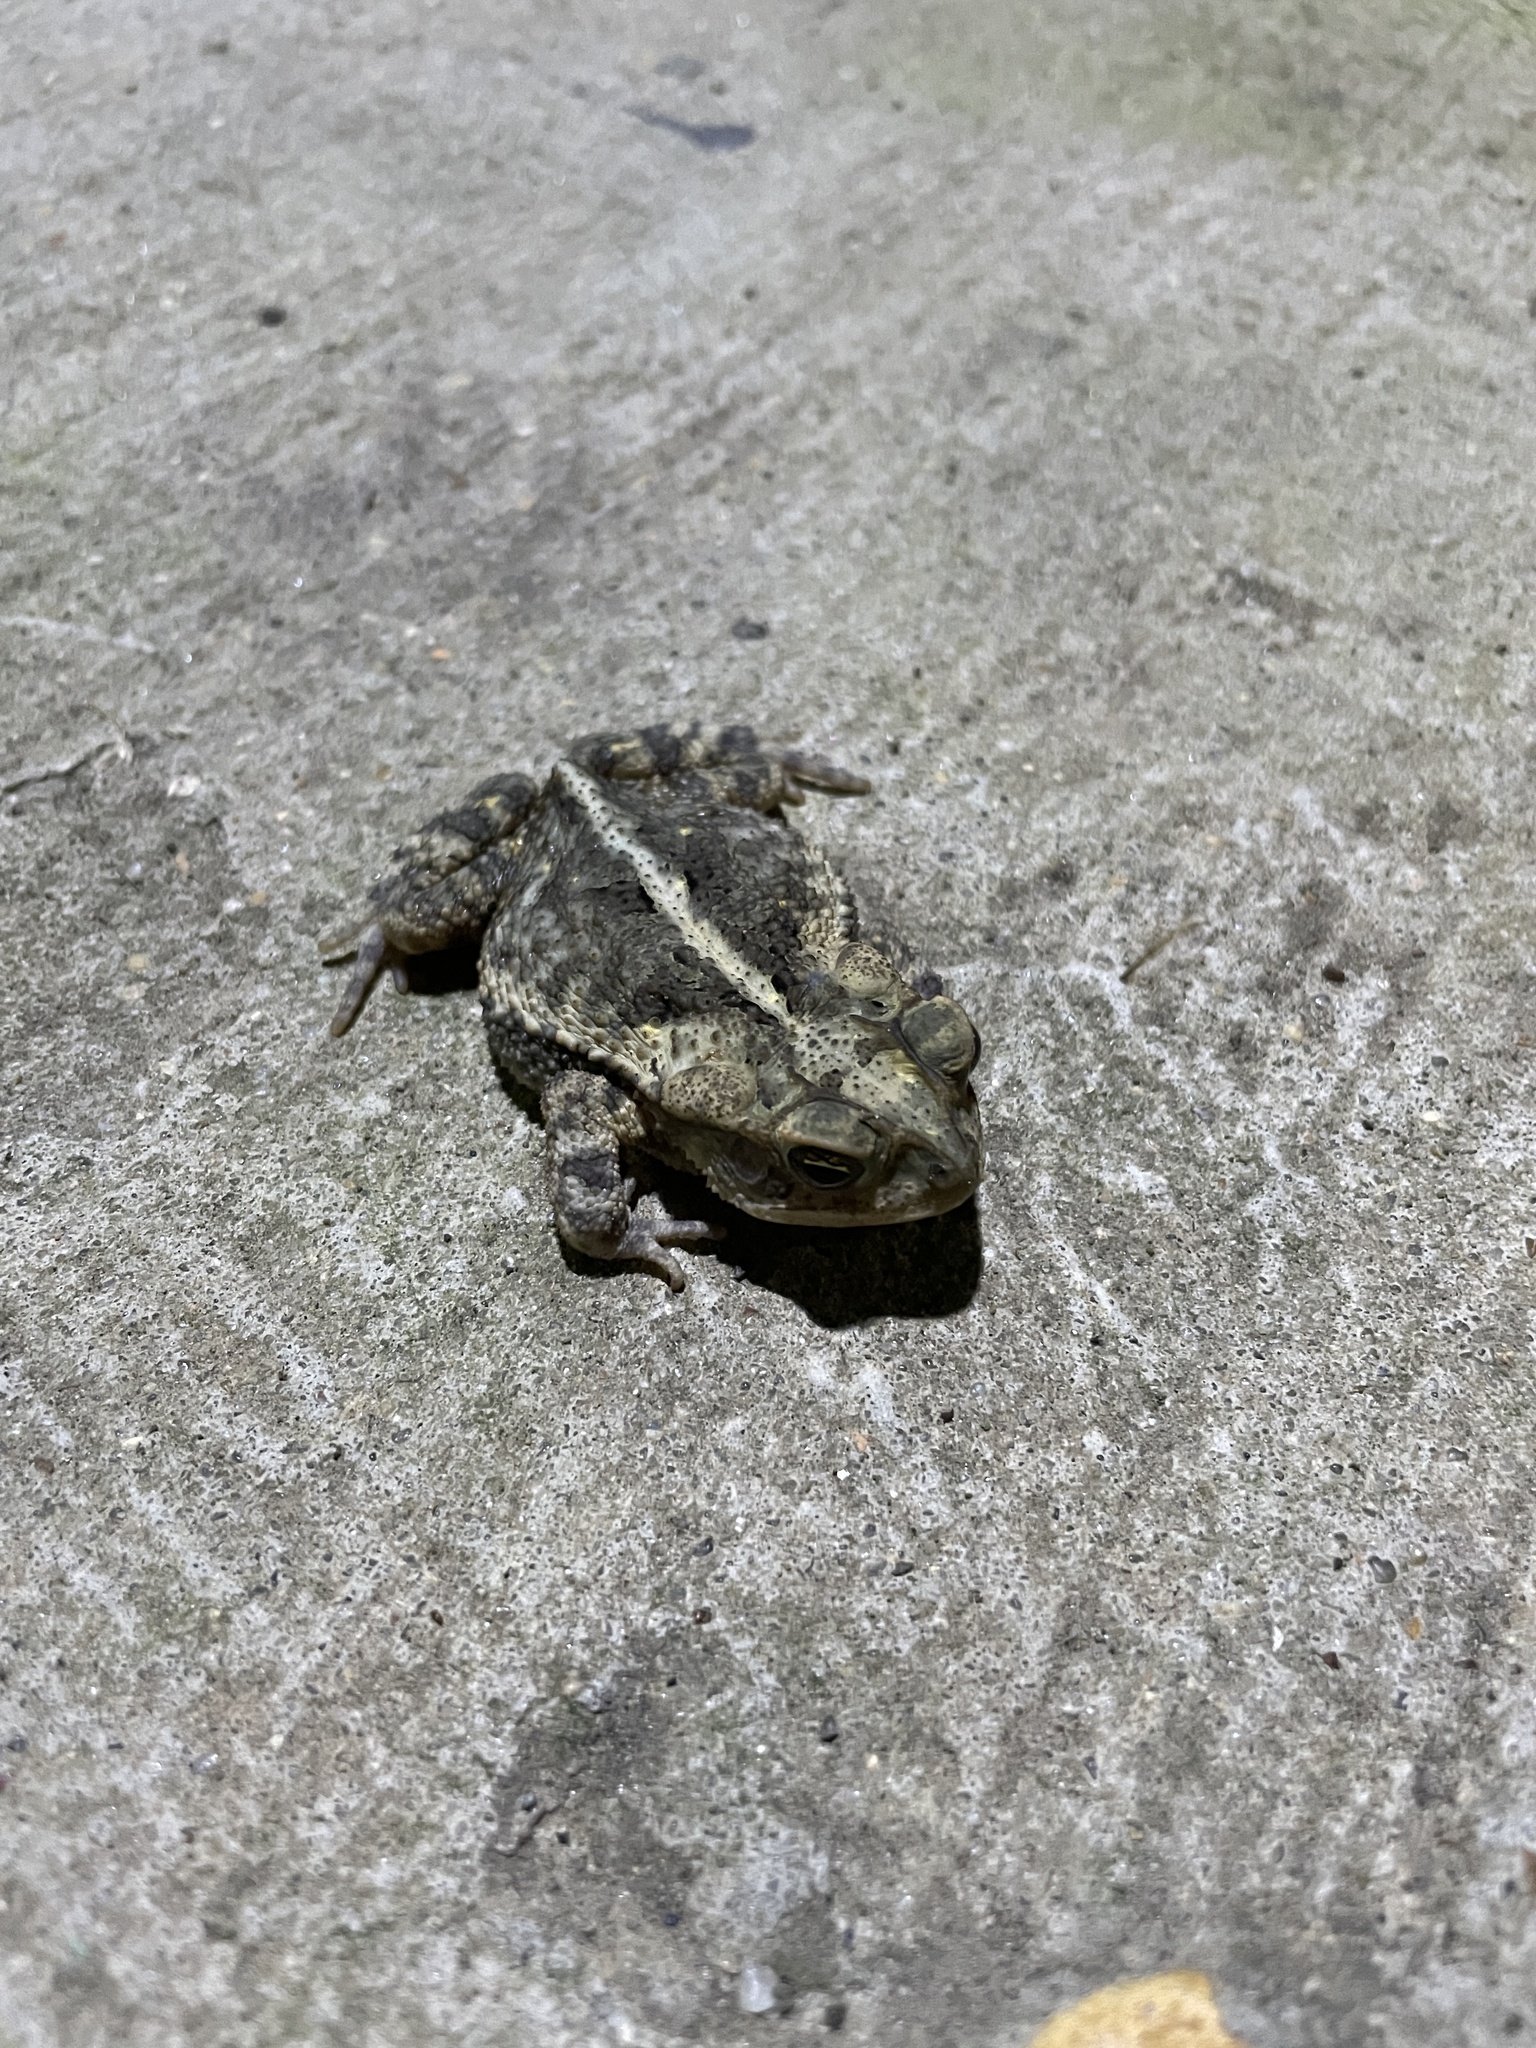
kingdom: Animalia
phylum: Chordata
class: Amphibia
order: Anura
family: Bufonidae
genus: Incilius
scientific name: Incilius nebulifer
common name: Gulf coast toad
